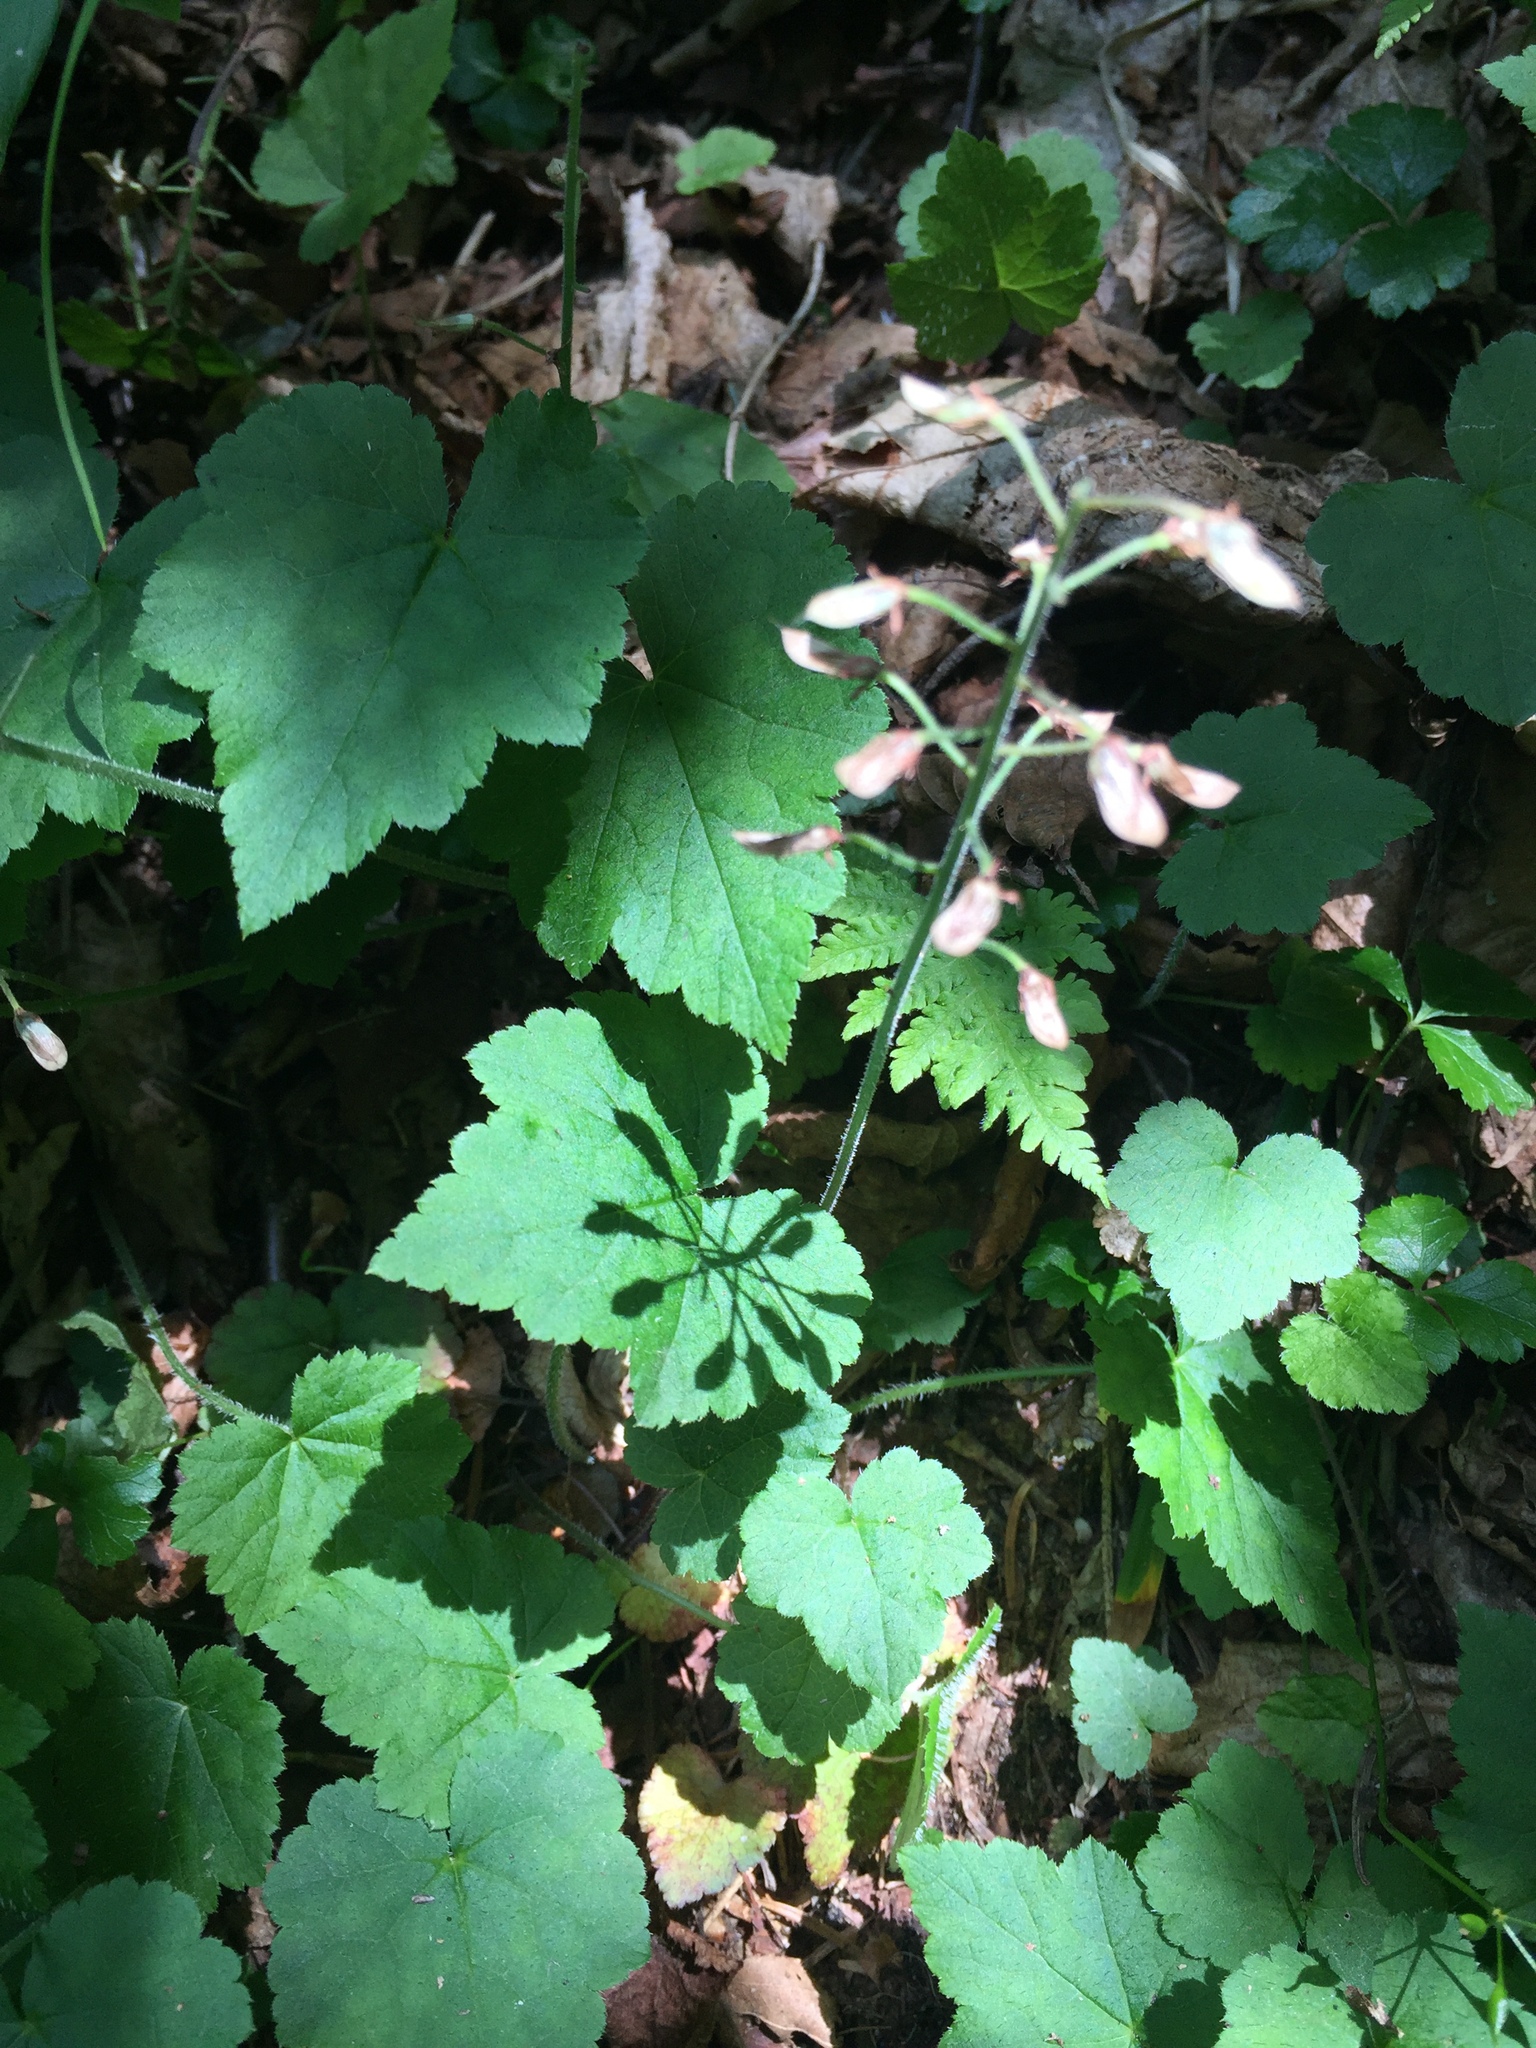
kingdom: Plantae
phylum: Tracheophyta
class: Magnoliopsida
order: Saxifragales
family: Saxifragaceae
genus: Tiarella
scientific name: Tiarella stolonifera
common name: Stoloniferous foamflower
